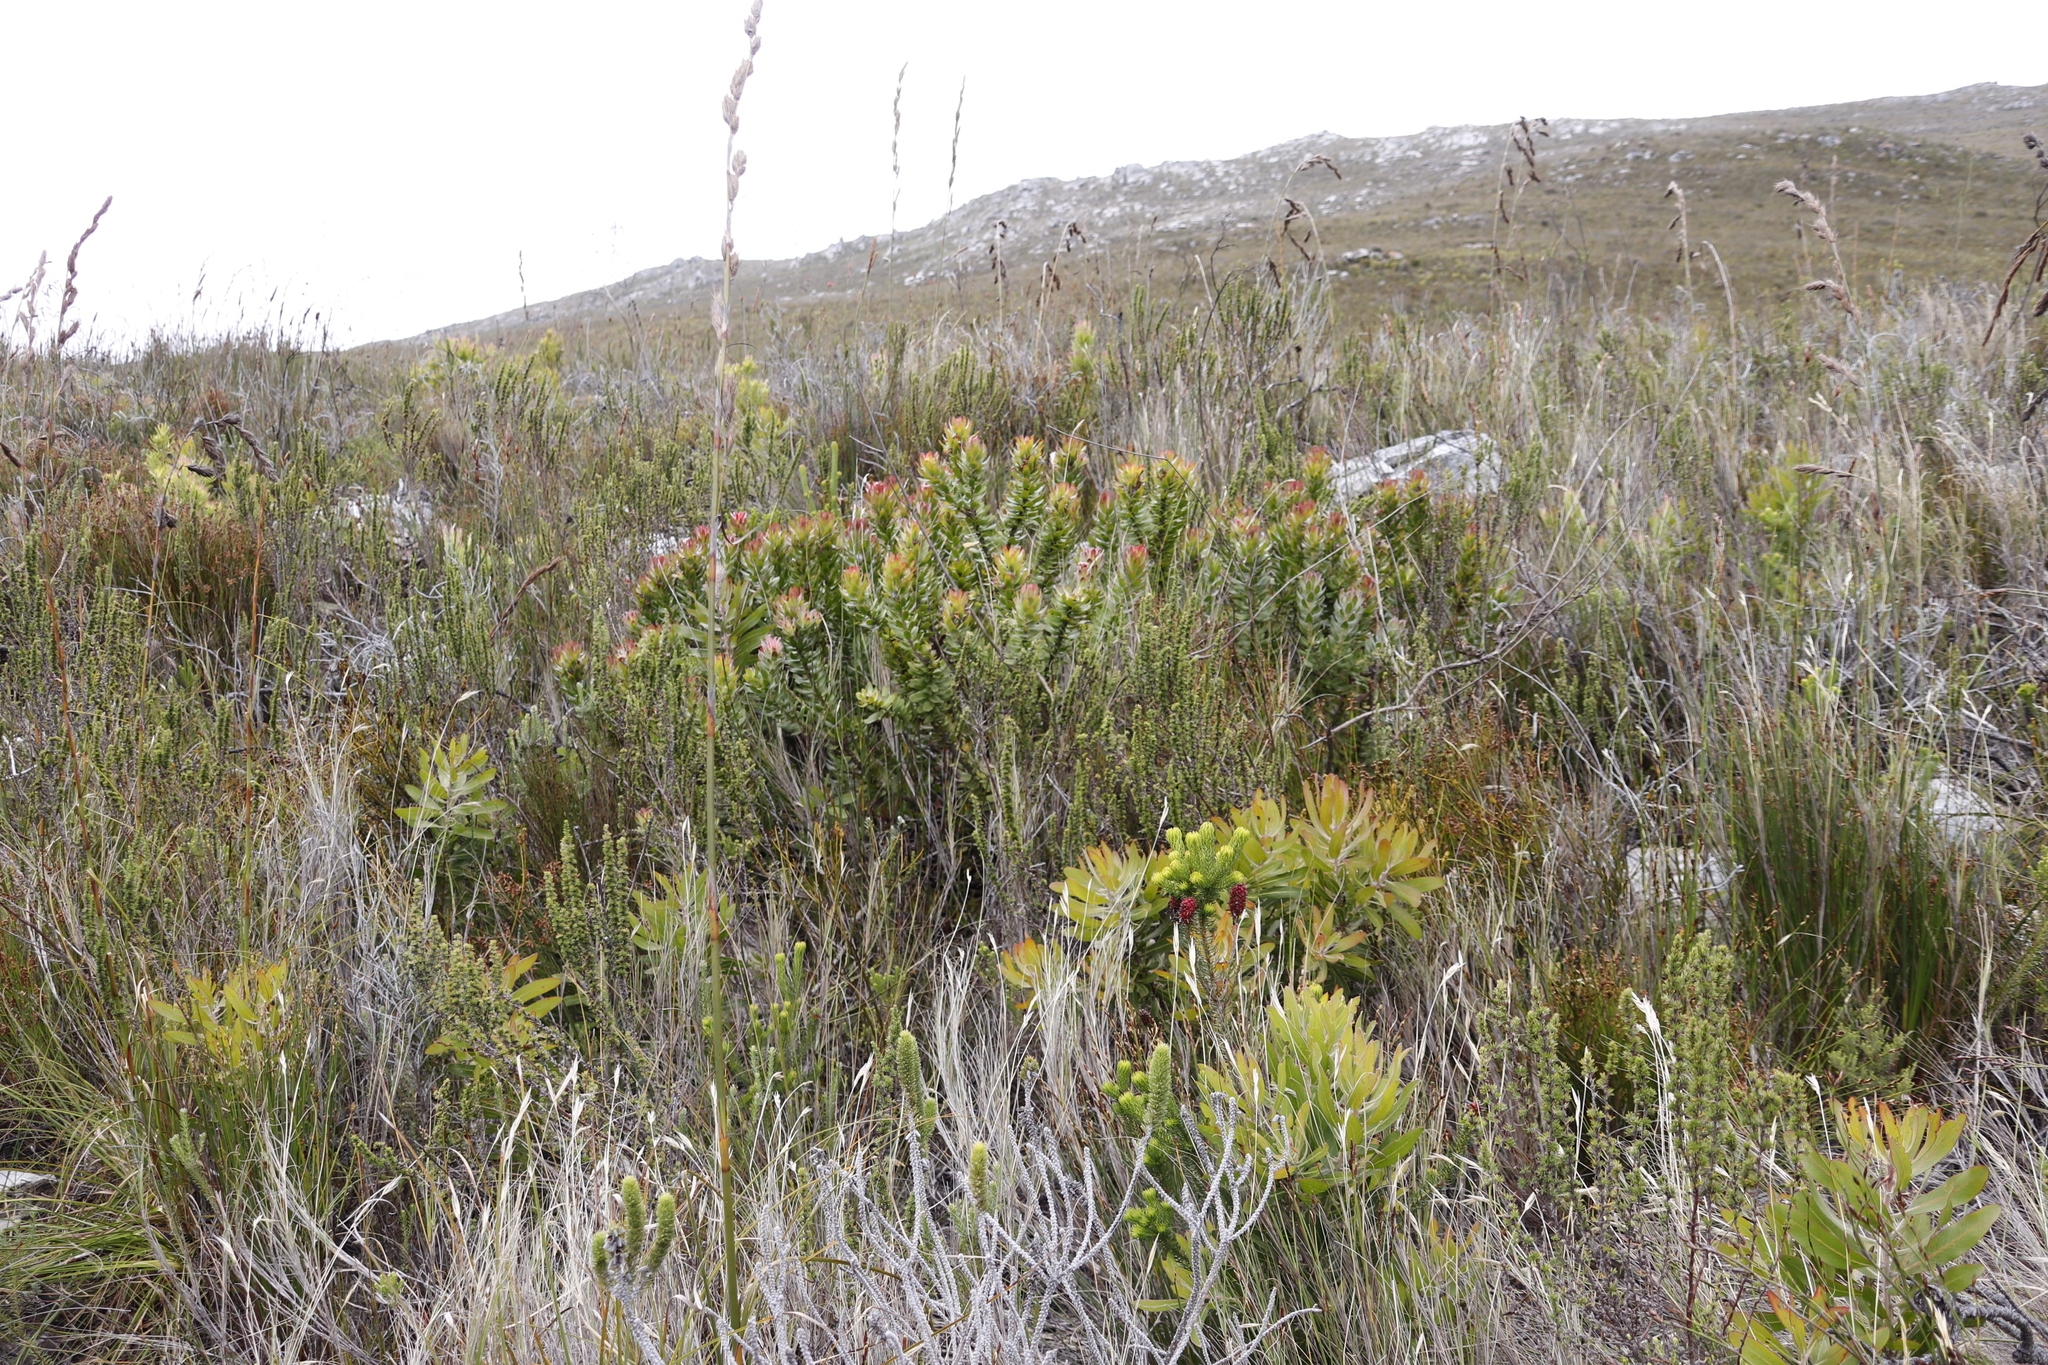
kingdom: Plantae
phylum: Tracheophyta
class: Magnoliopsida
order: Proteales
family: Proteaceae
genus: Protea
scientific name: Protea neriifolia
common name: Blue sugarbush
